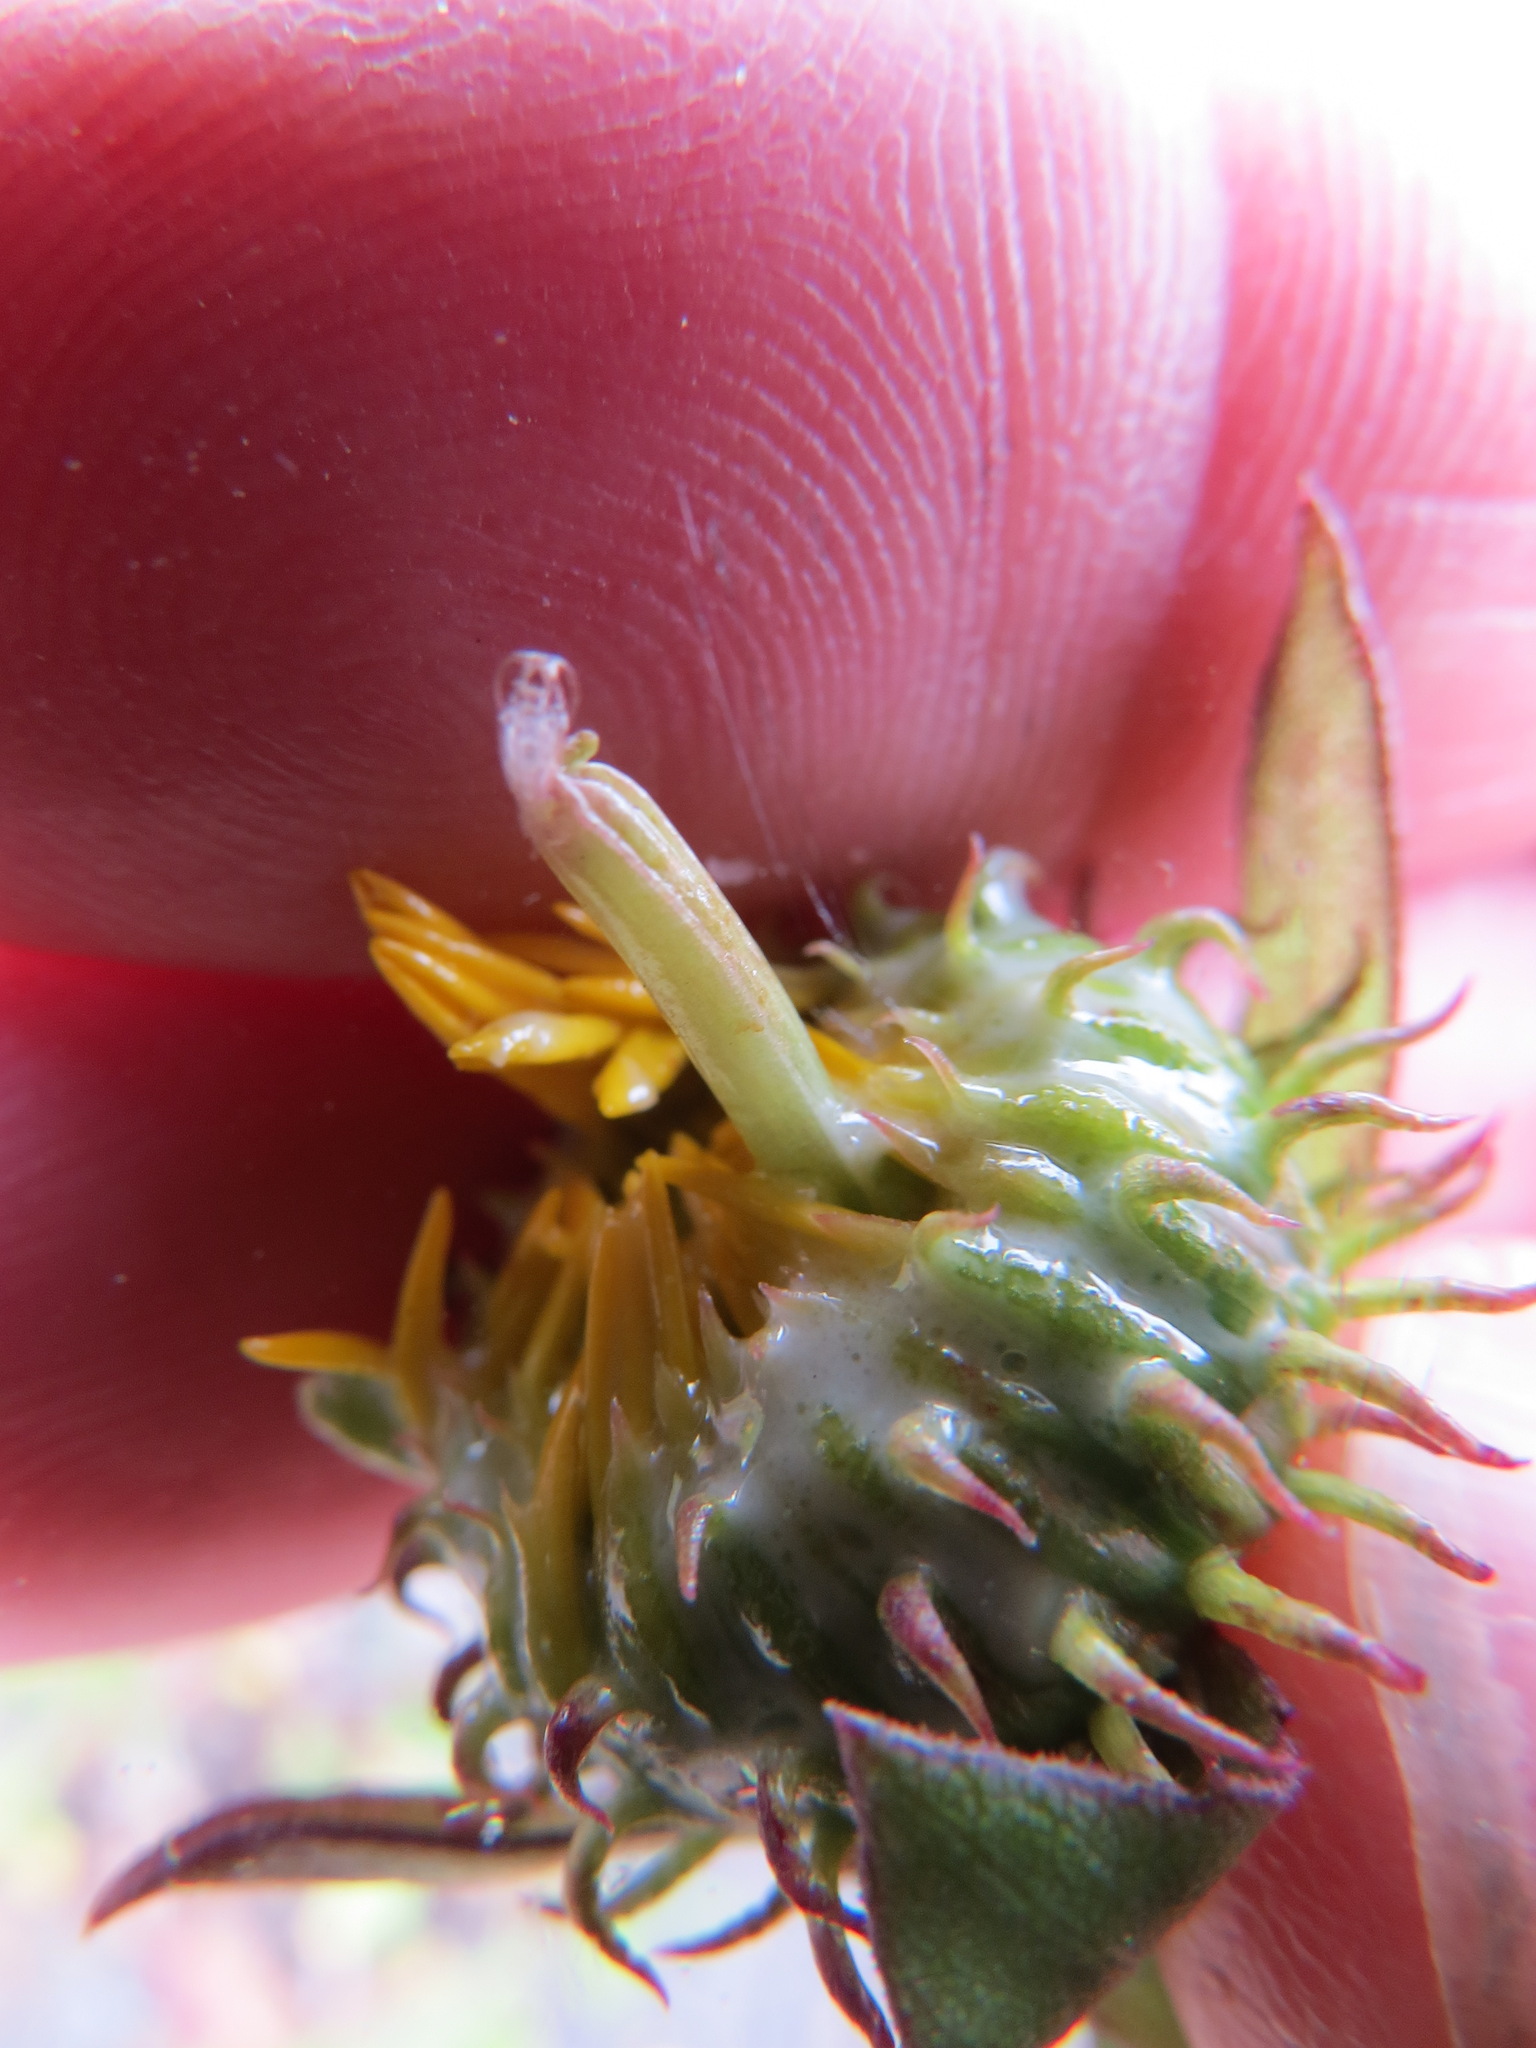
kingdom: Animalia
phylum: Arthropoda
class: Insecta
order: Diptera
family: Cecidomyiidae
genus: Rhopalomyia
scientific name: Rhopalomyia grindeliae
